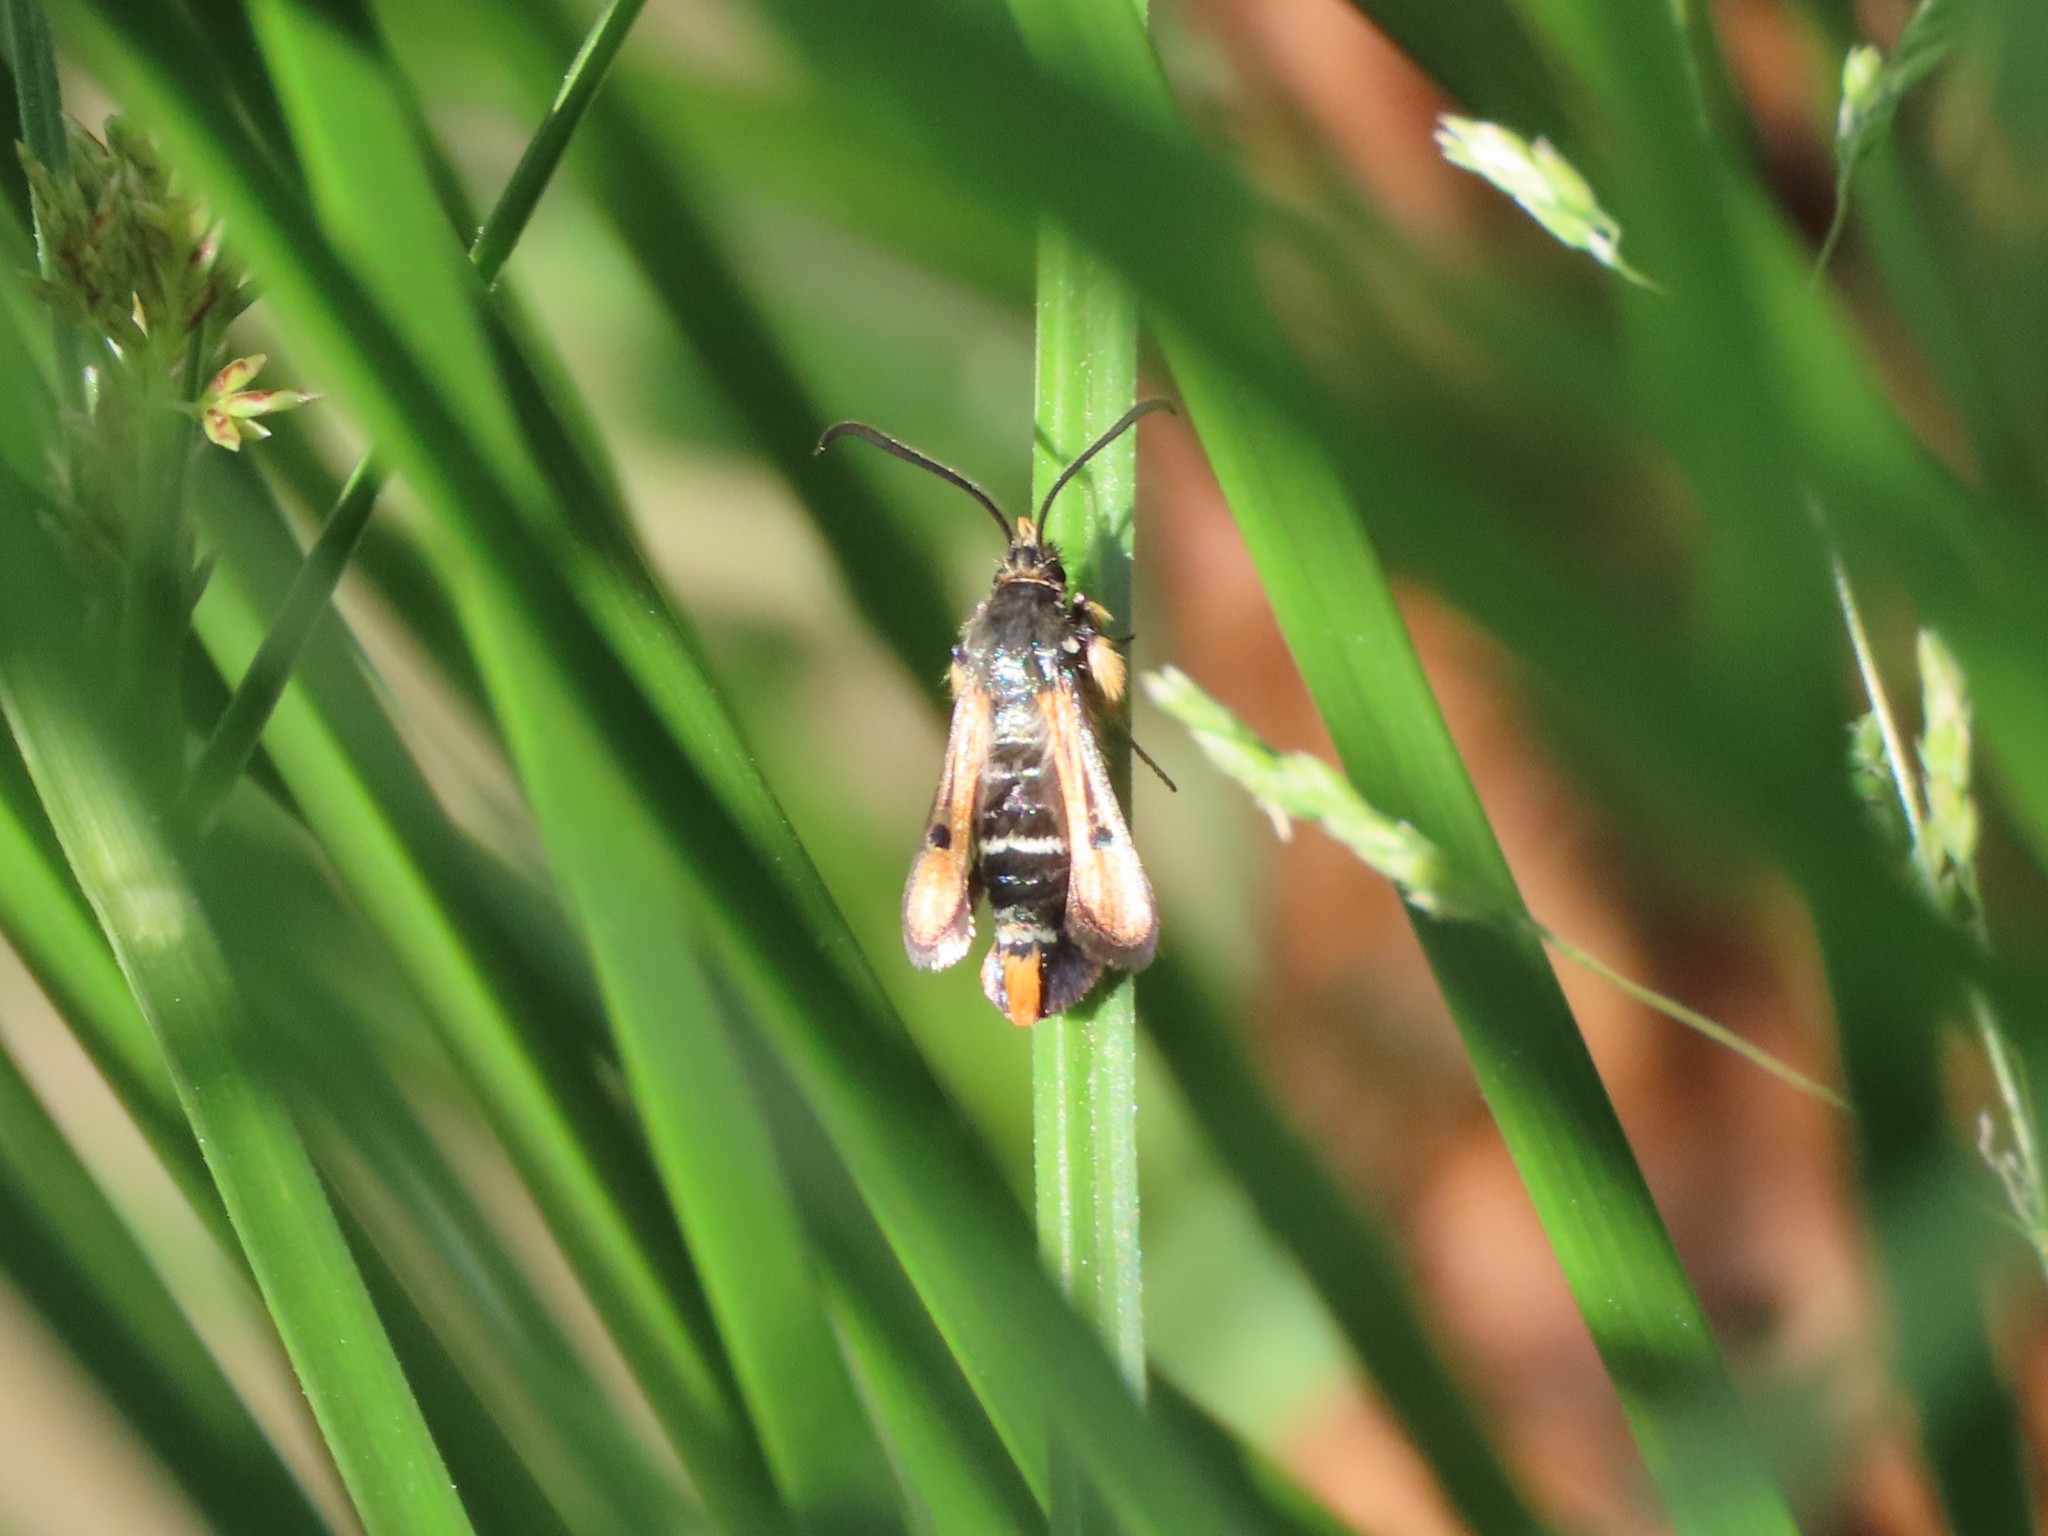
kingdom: Animalia
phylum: Arthropoda
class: Insecta
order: Lepidoptera
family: Sesiidae
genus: Pyropteron
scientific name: Pyropteron chrysidiforme
